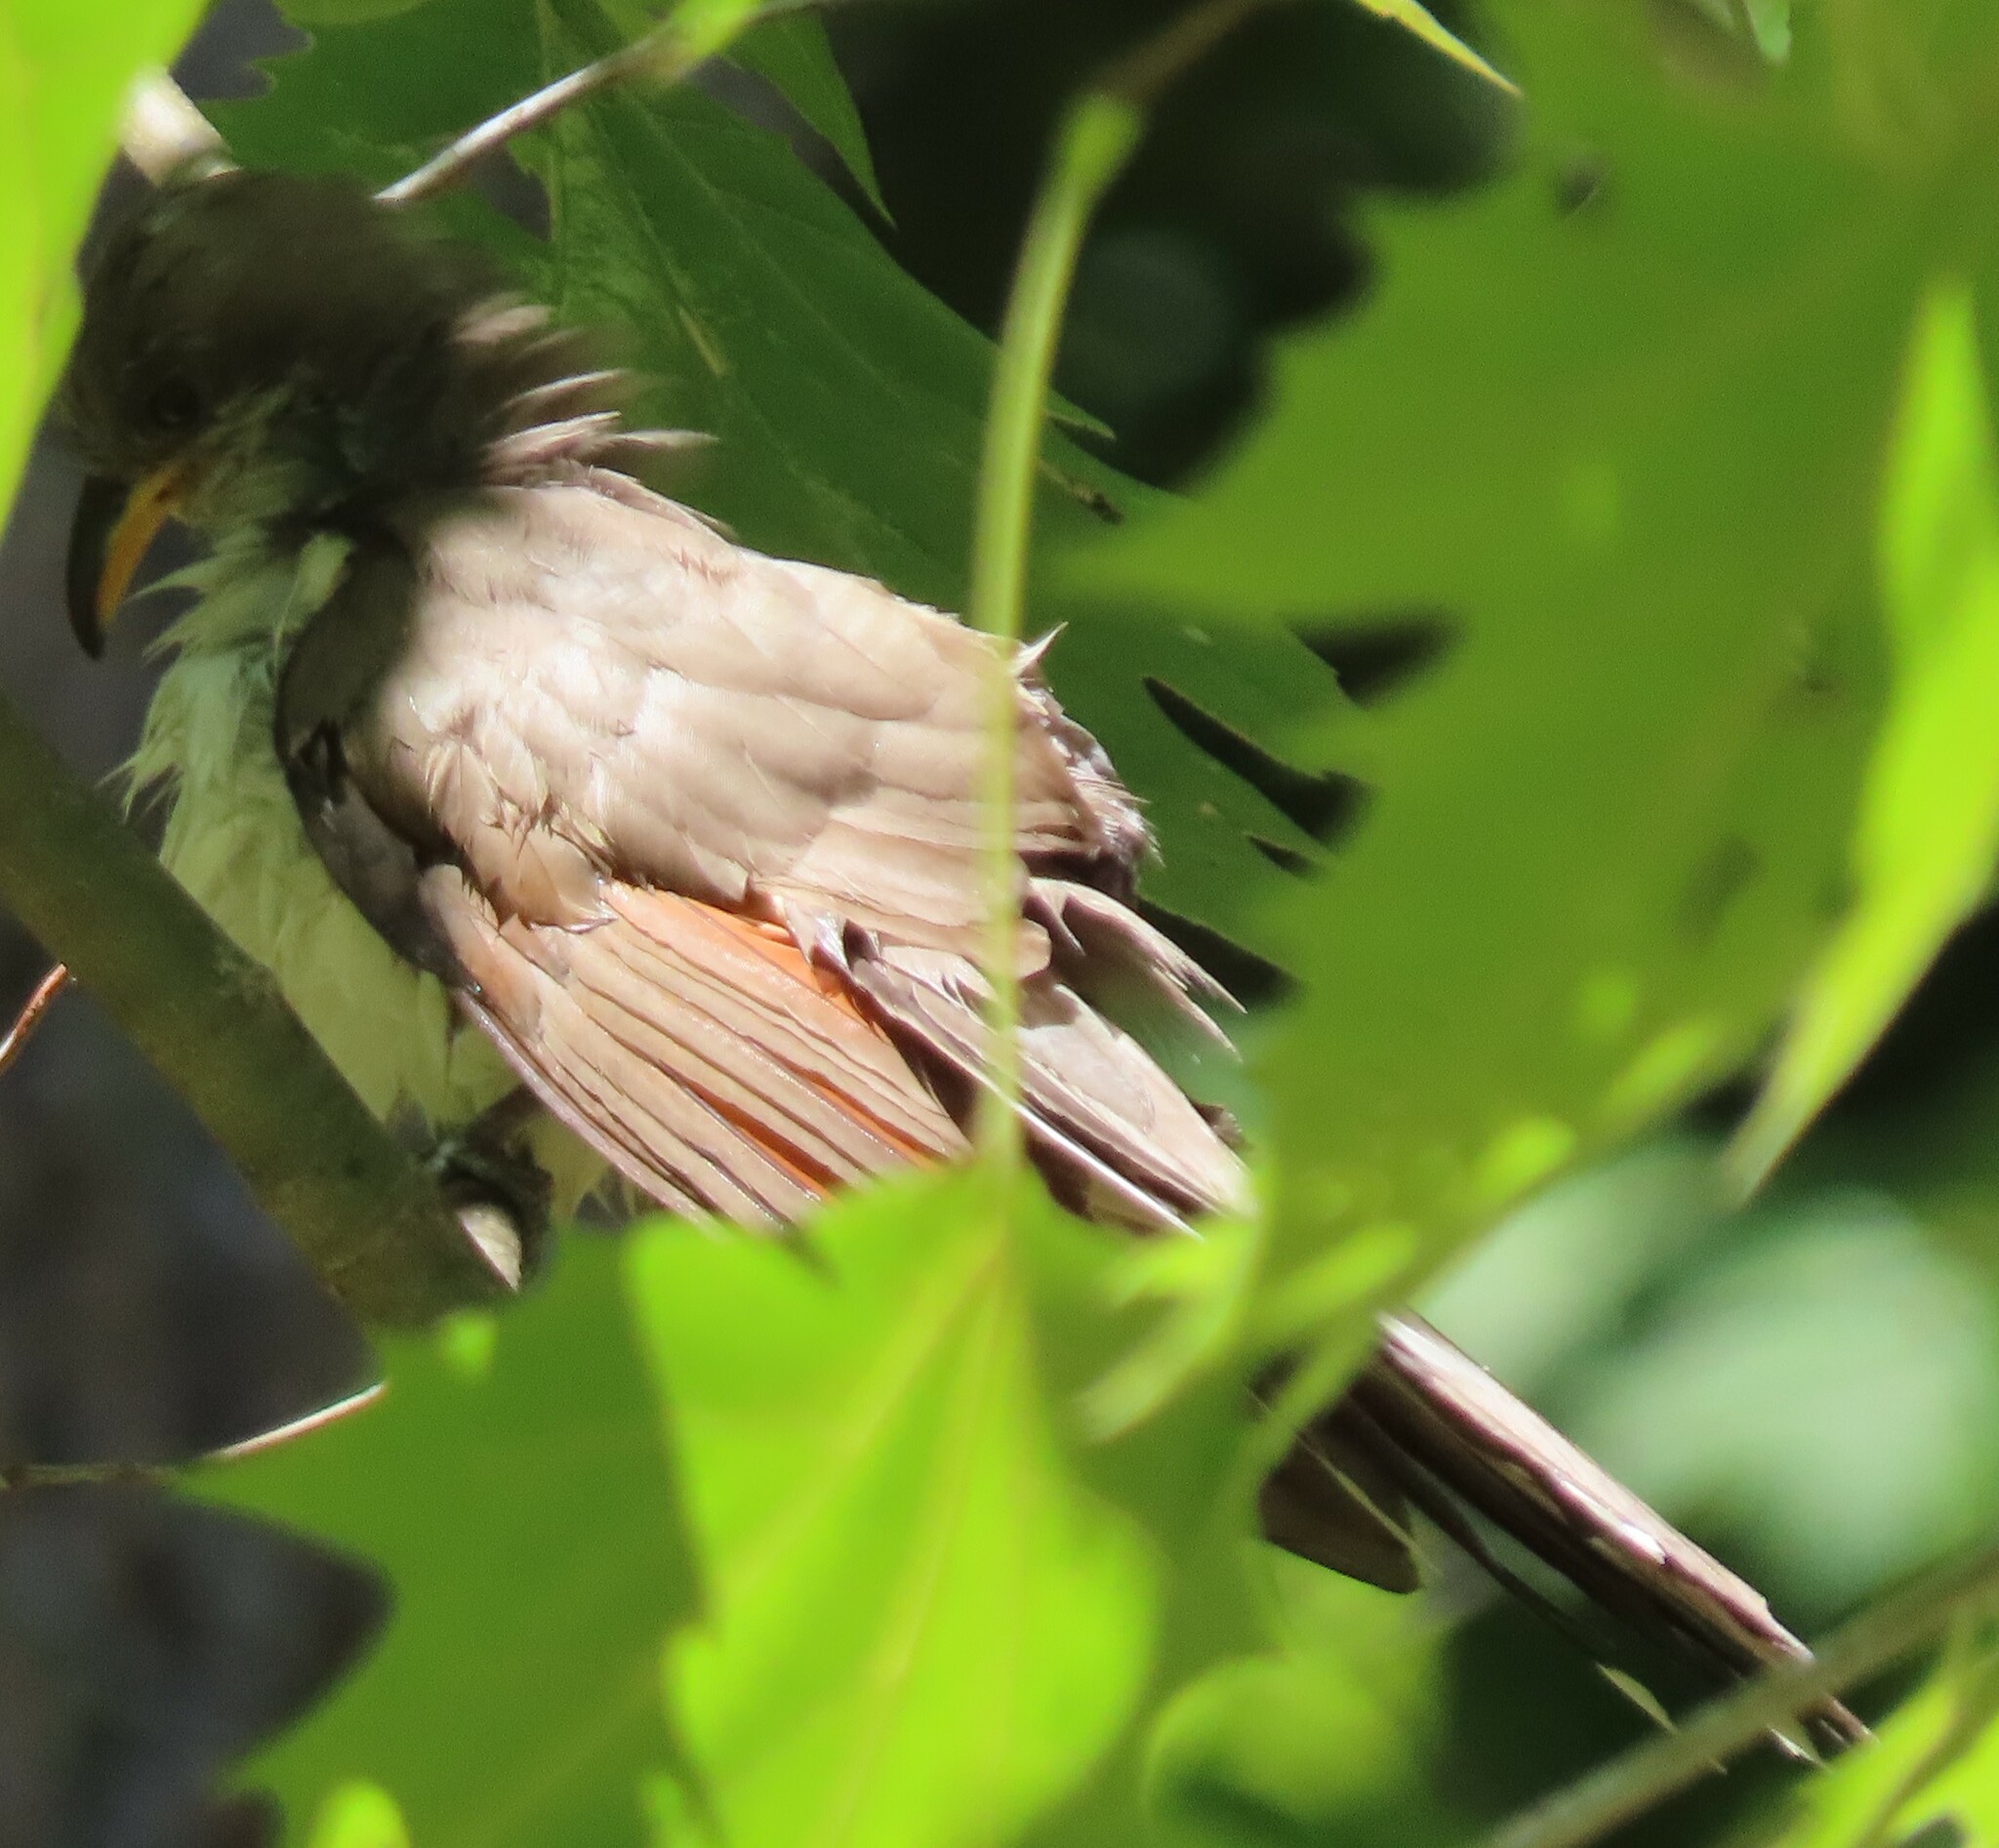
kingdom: Animalia
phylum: Chordata
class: Aves
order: Cuculiformes
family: Cuculidae
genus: Coccyzus
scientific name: Coccyzus americanus
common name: Yellow-billed cuckoo
